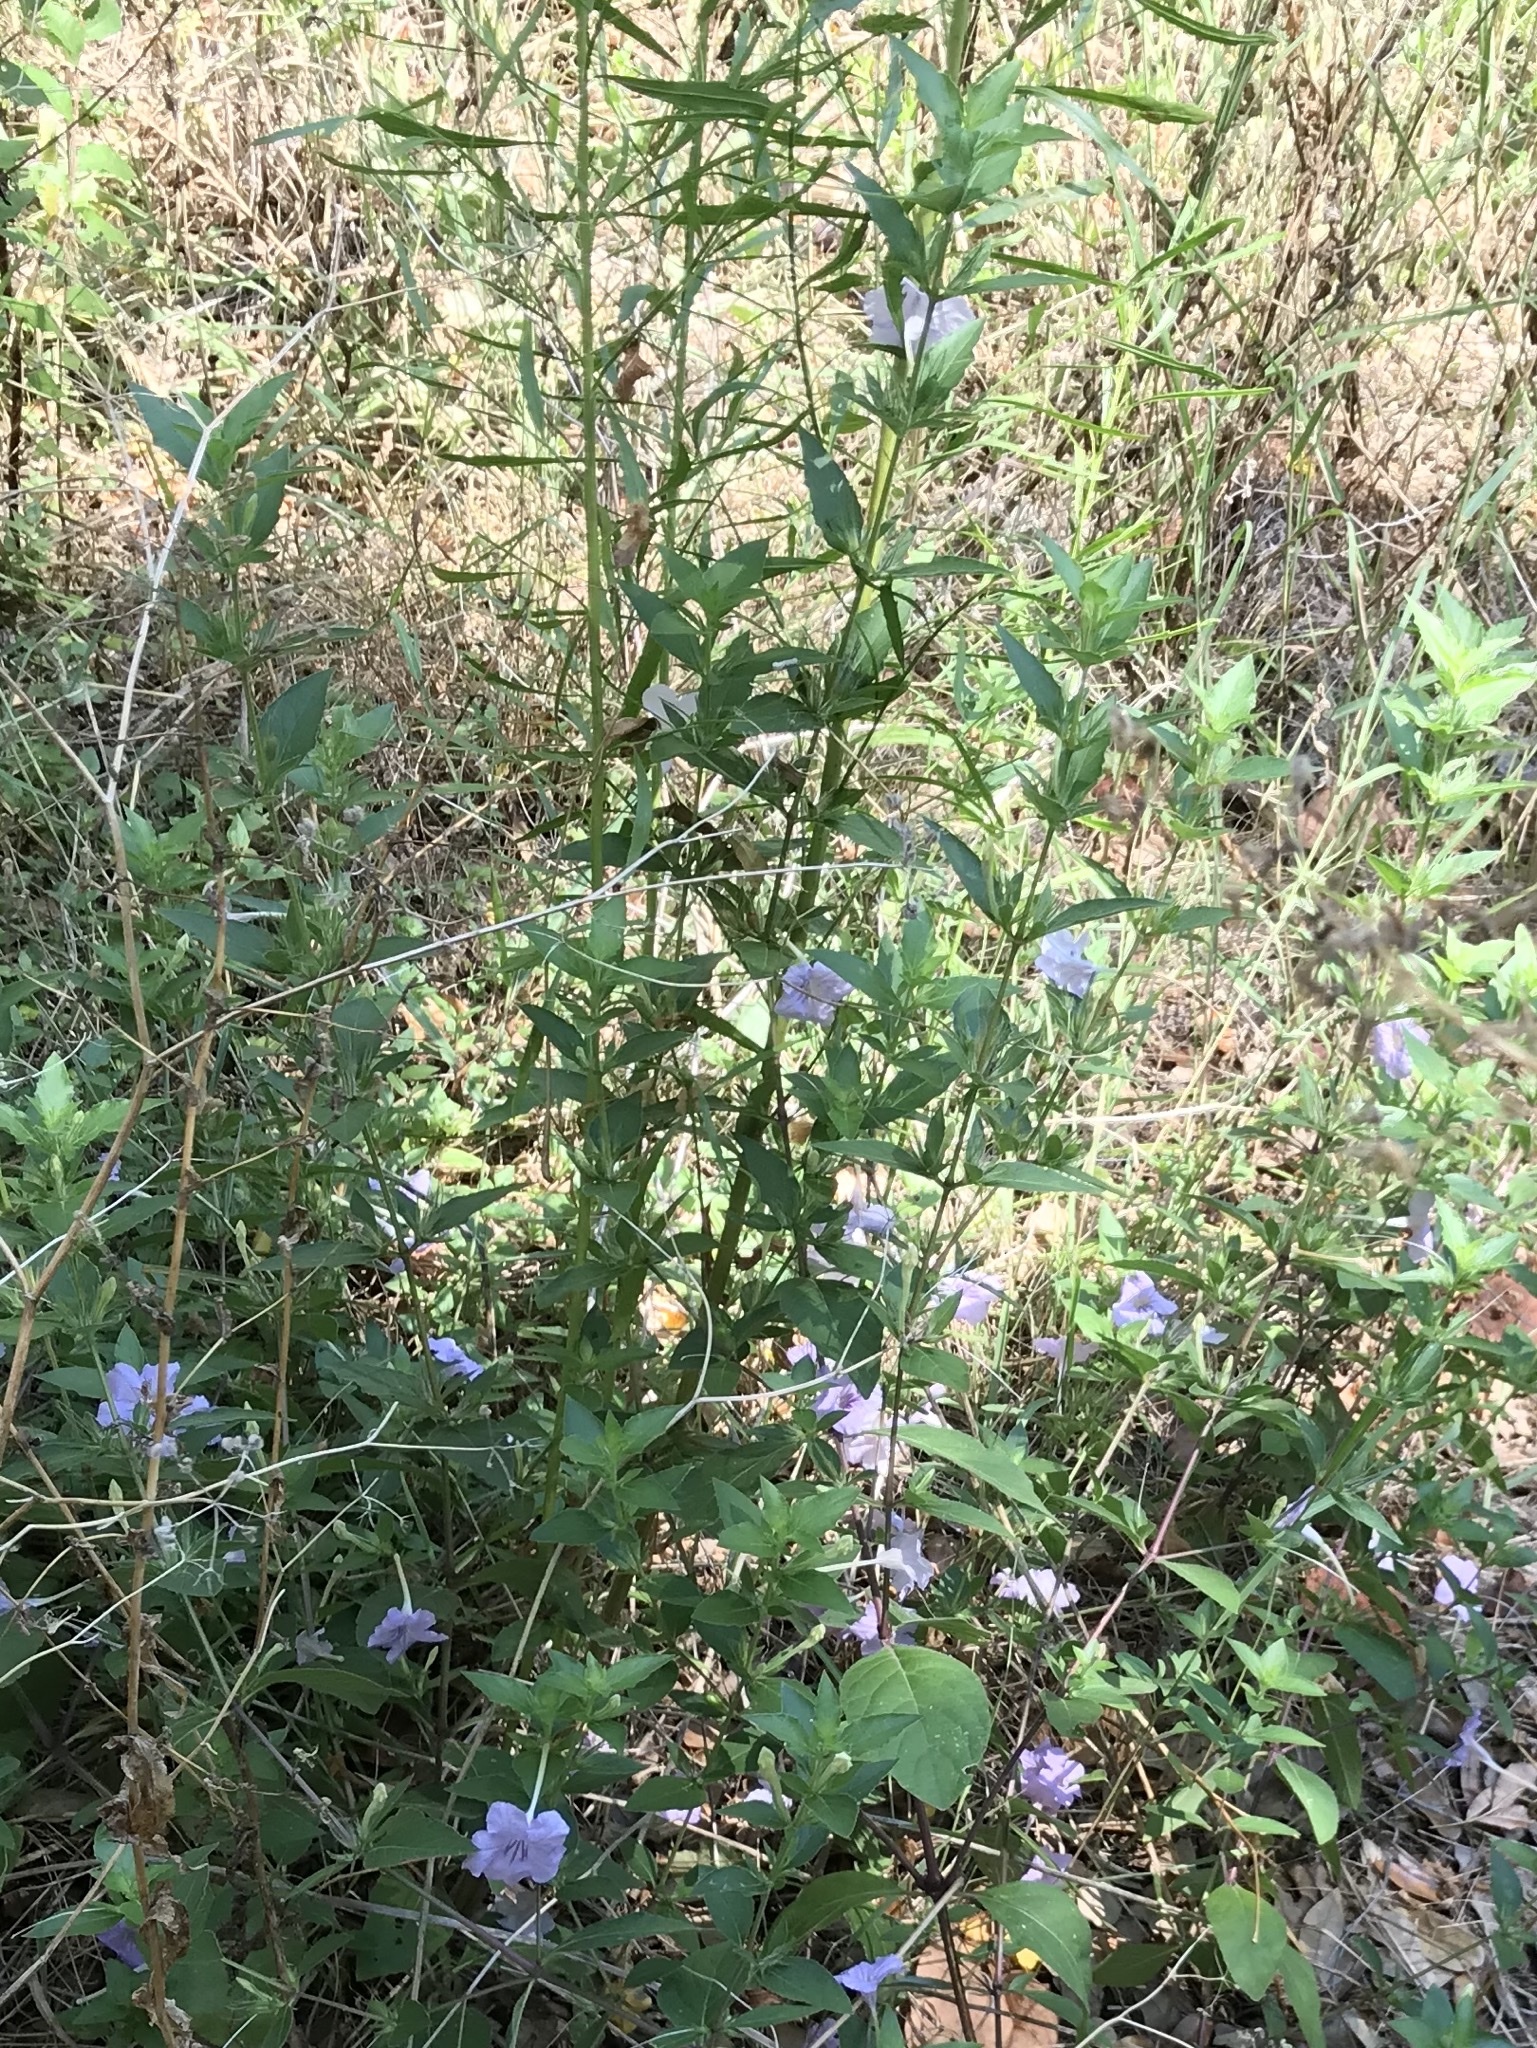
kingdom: Plantae
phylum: Tracheophyta
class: Magnoliopsida
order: Lamiales
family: Acanthaceae
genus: Ruellia
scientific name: Ruellia drummondiana
